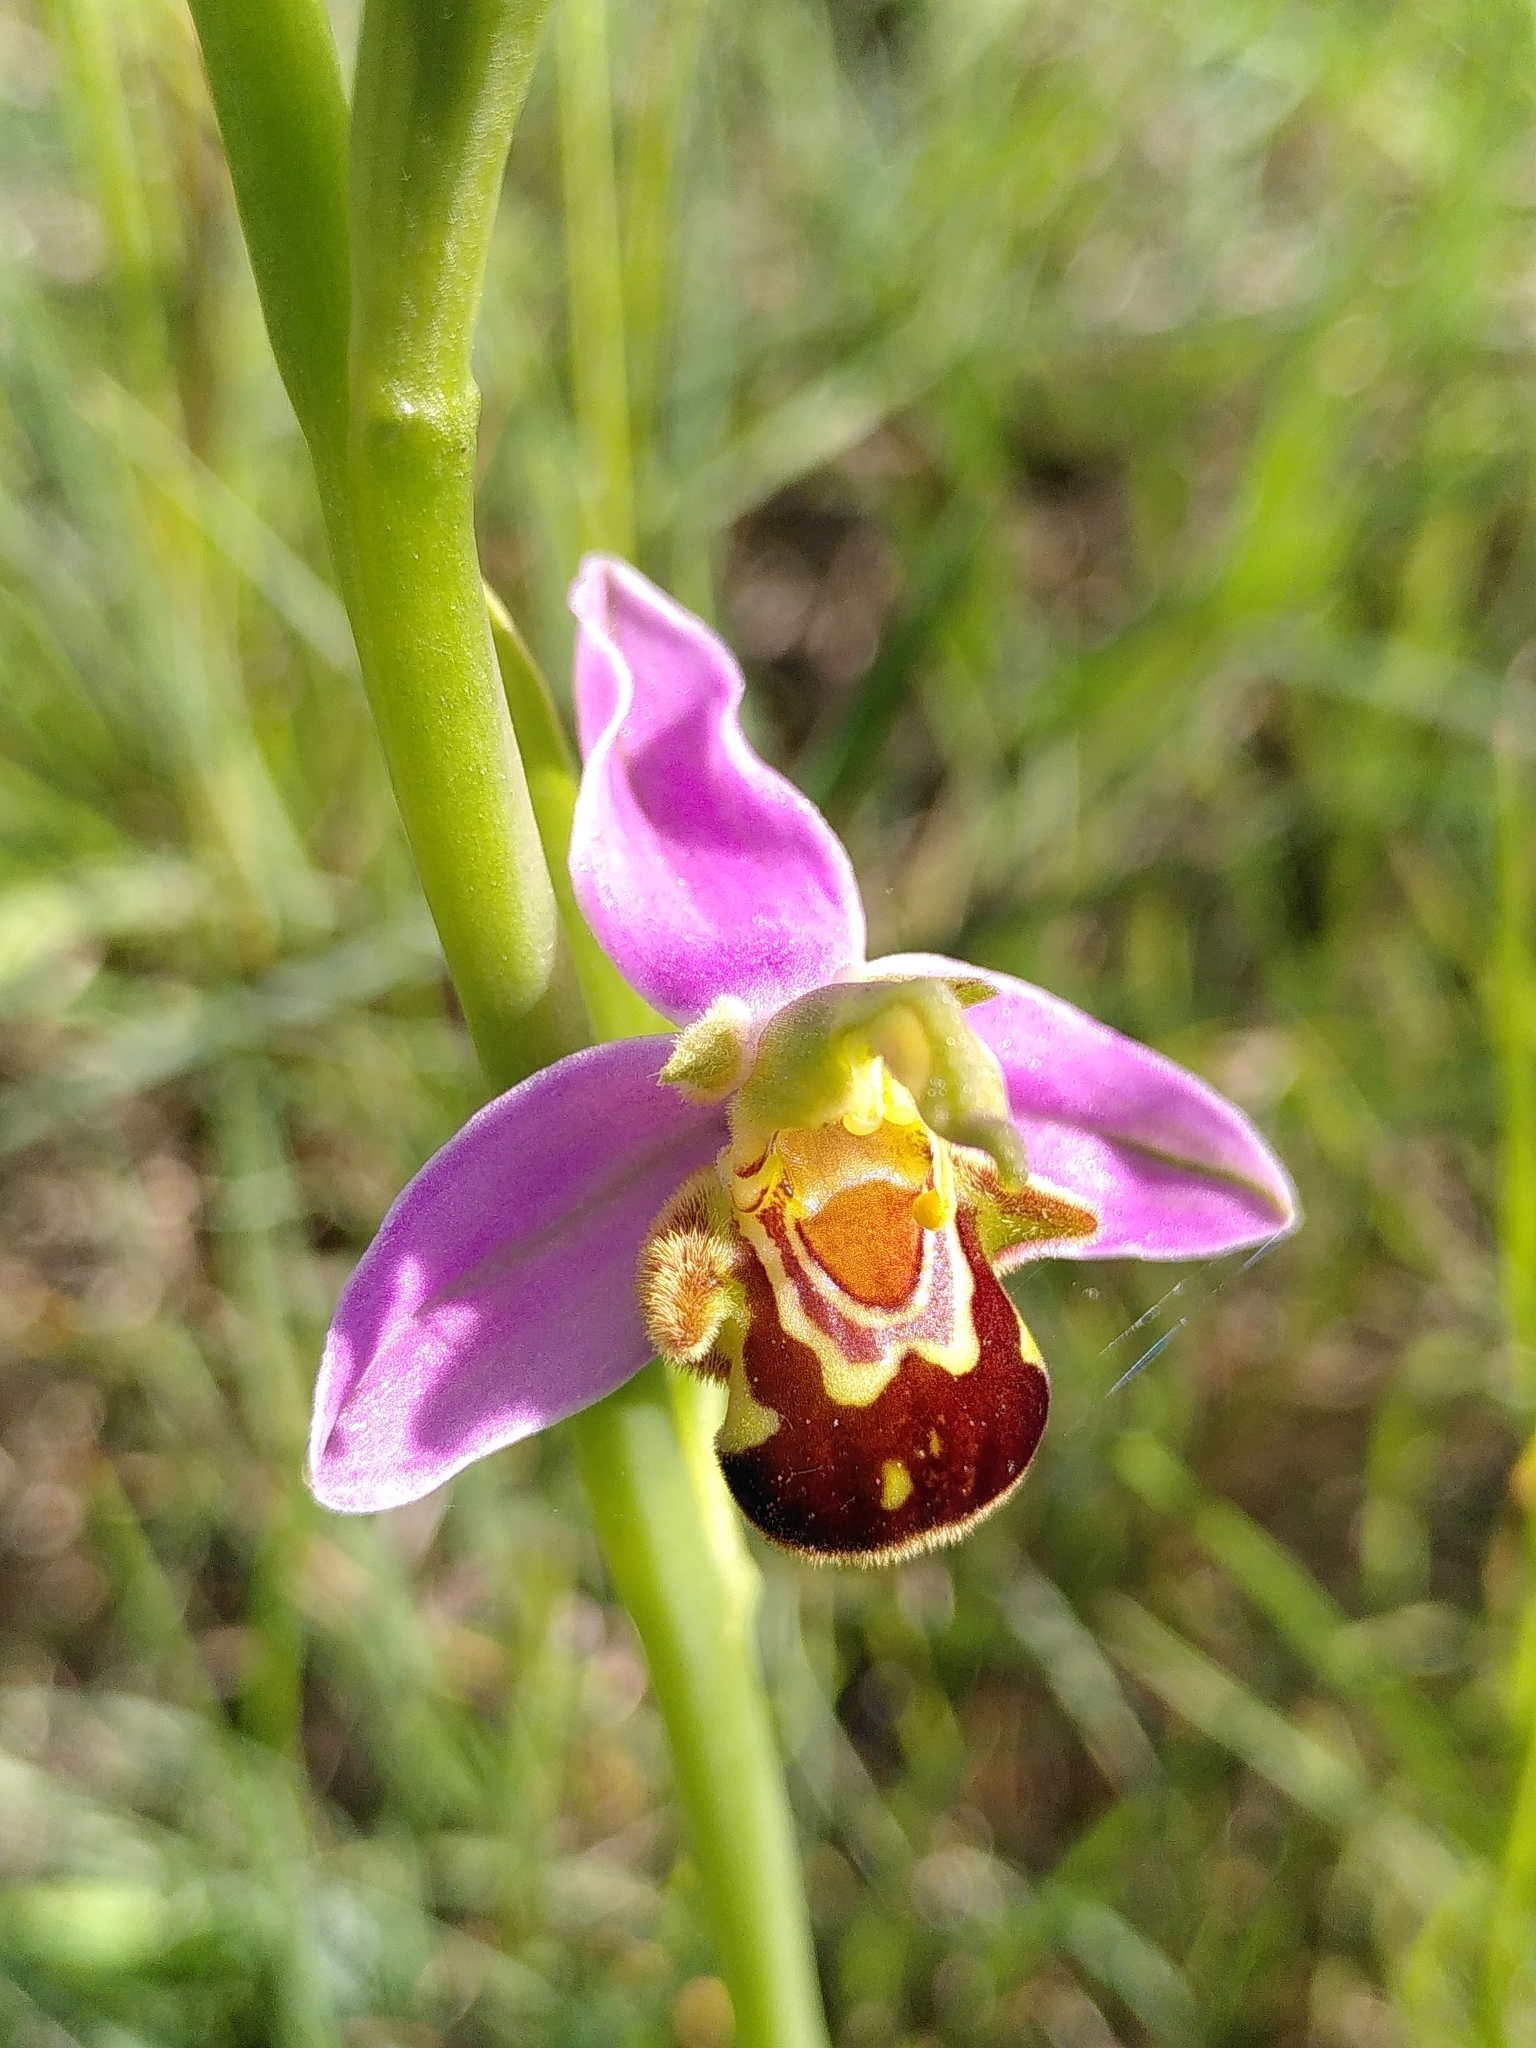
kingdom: Plantae
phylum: Tracheophyta
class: Liliopsida
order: Asparagales
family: Orchidaceae
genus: Ophrys
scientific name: Ophrys apifera
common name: Bee orchid
